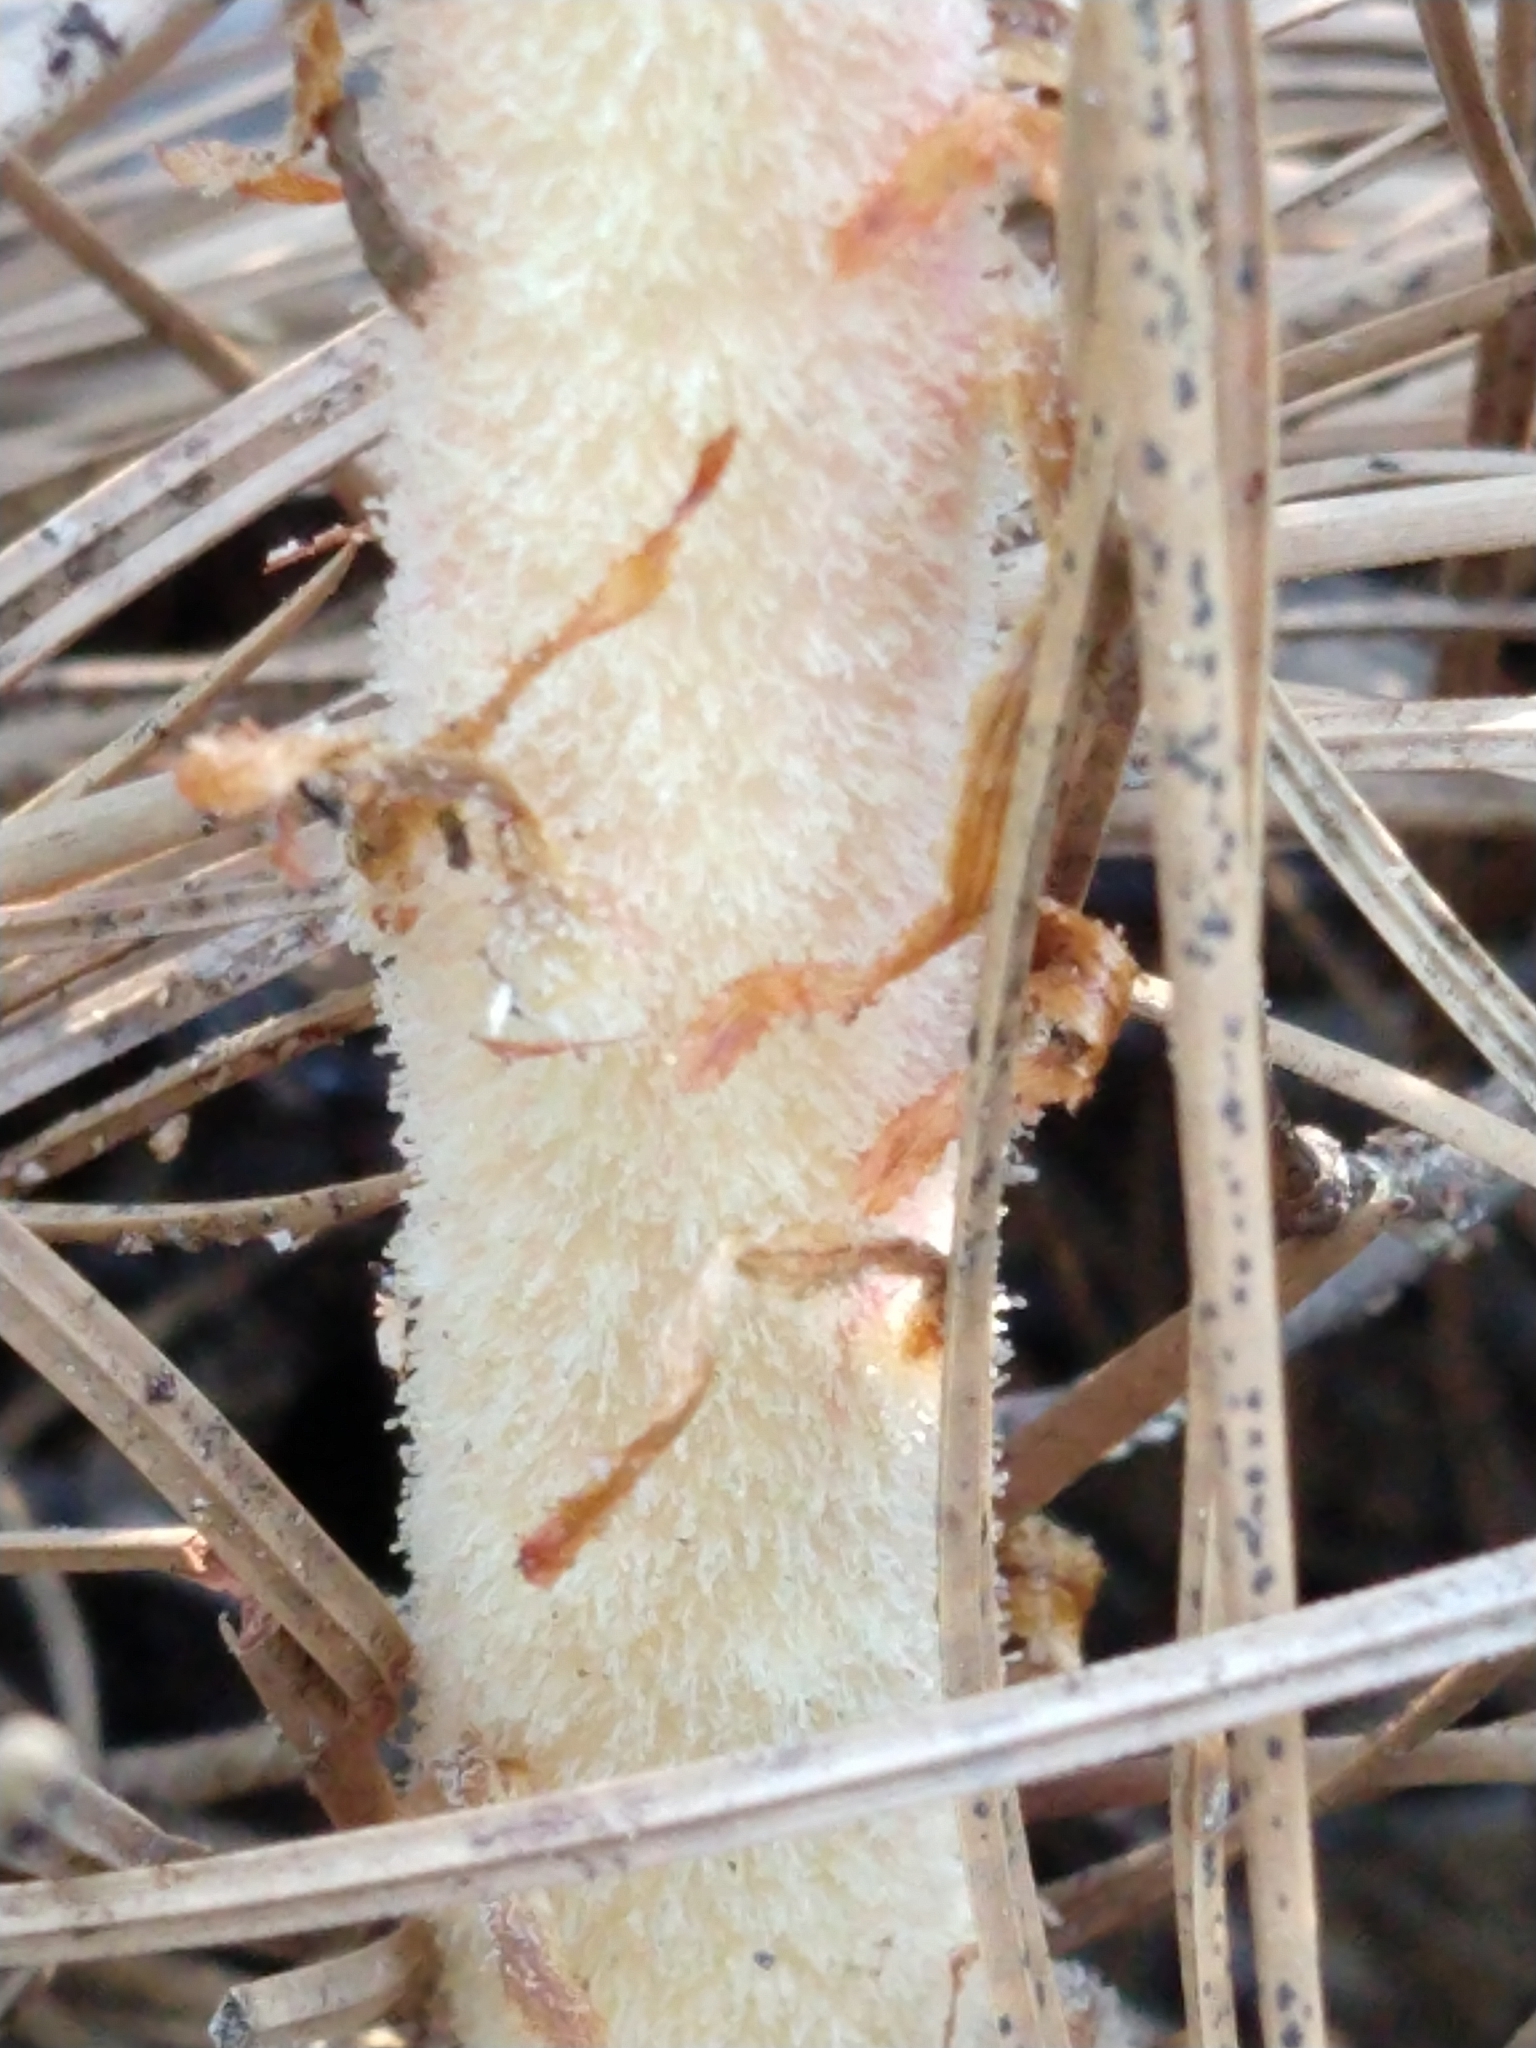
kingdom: Plantae
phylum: Tracheophyta
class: Magnoliopsida
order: Ericales
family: Ericaceae
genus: Pterospora
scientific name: Pterospora andromedea
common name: Giant bird's-nest
